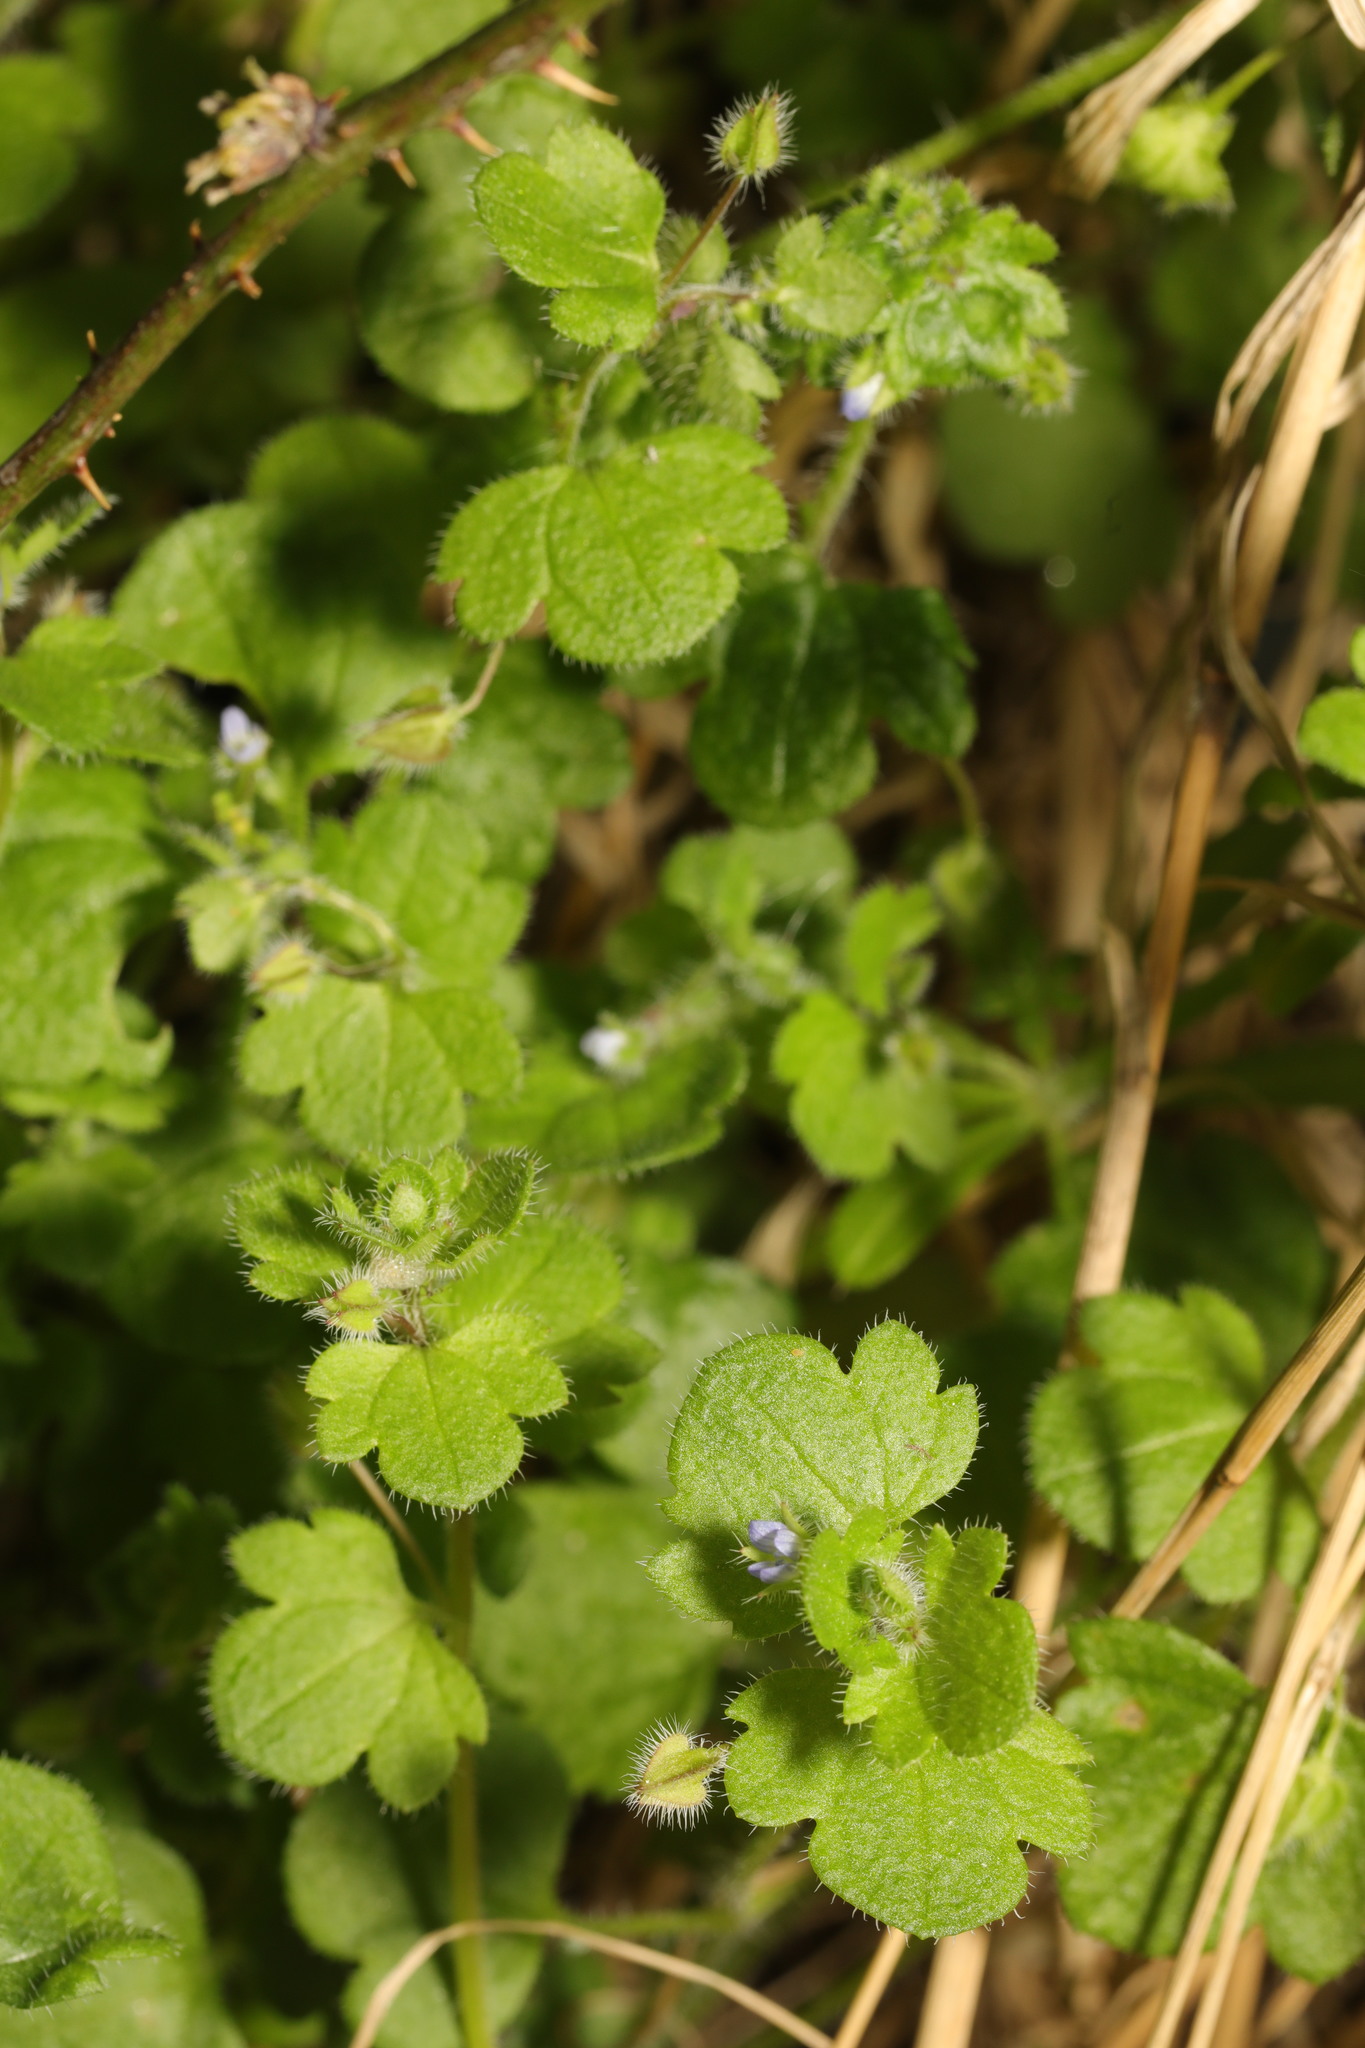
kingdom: Plantae
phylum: Tracheophyta
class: Magnoliopsida
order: Lamiales
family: Plantaginaceae
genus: Veronica
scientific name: Veronica hederifolia
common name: Ivy-leaved speedwell
